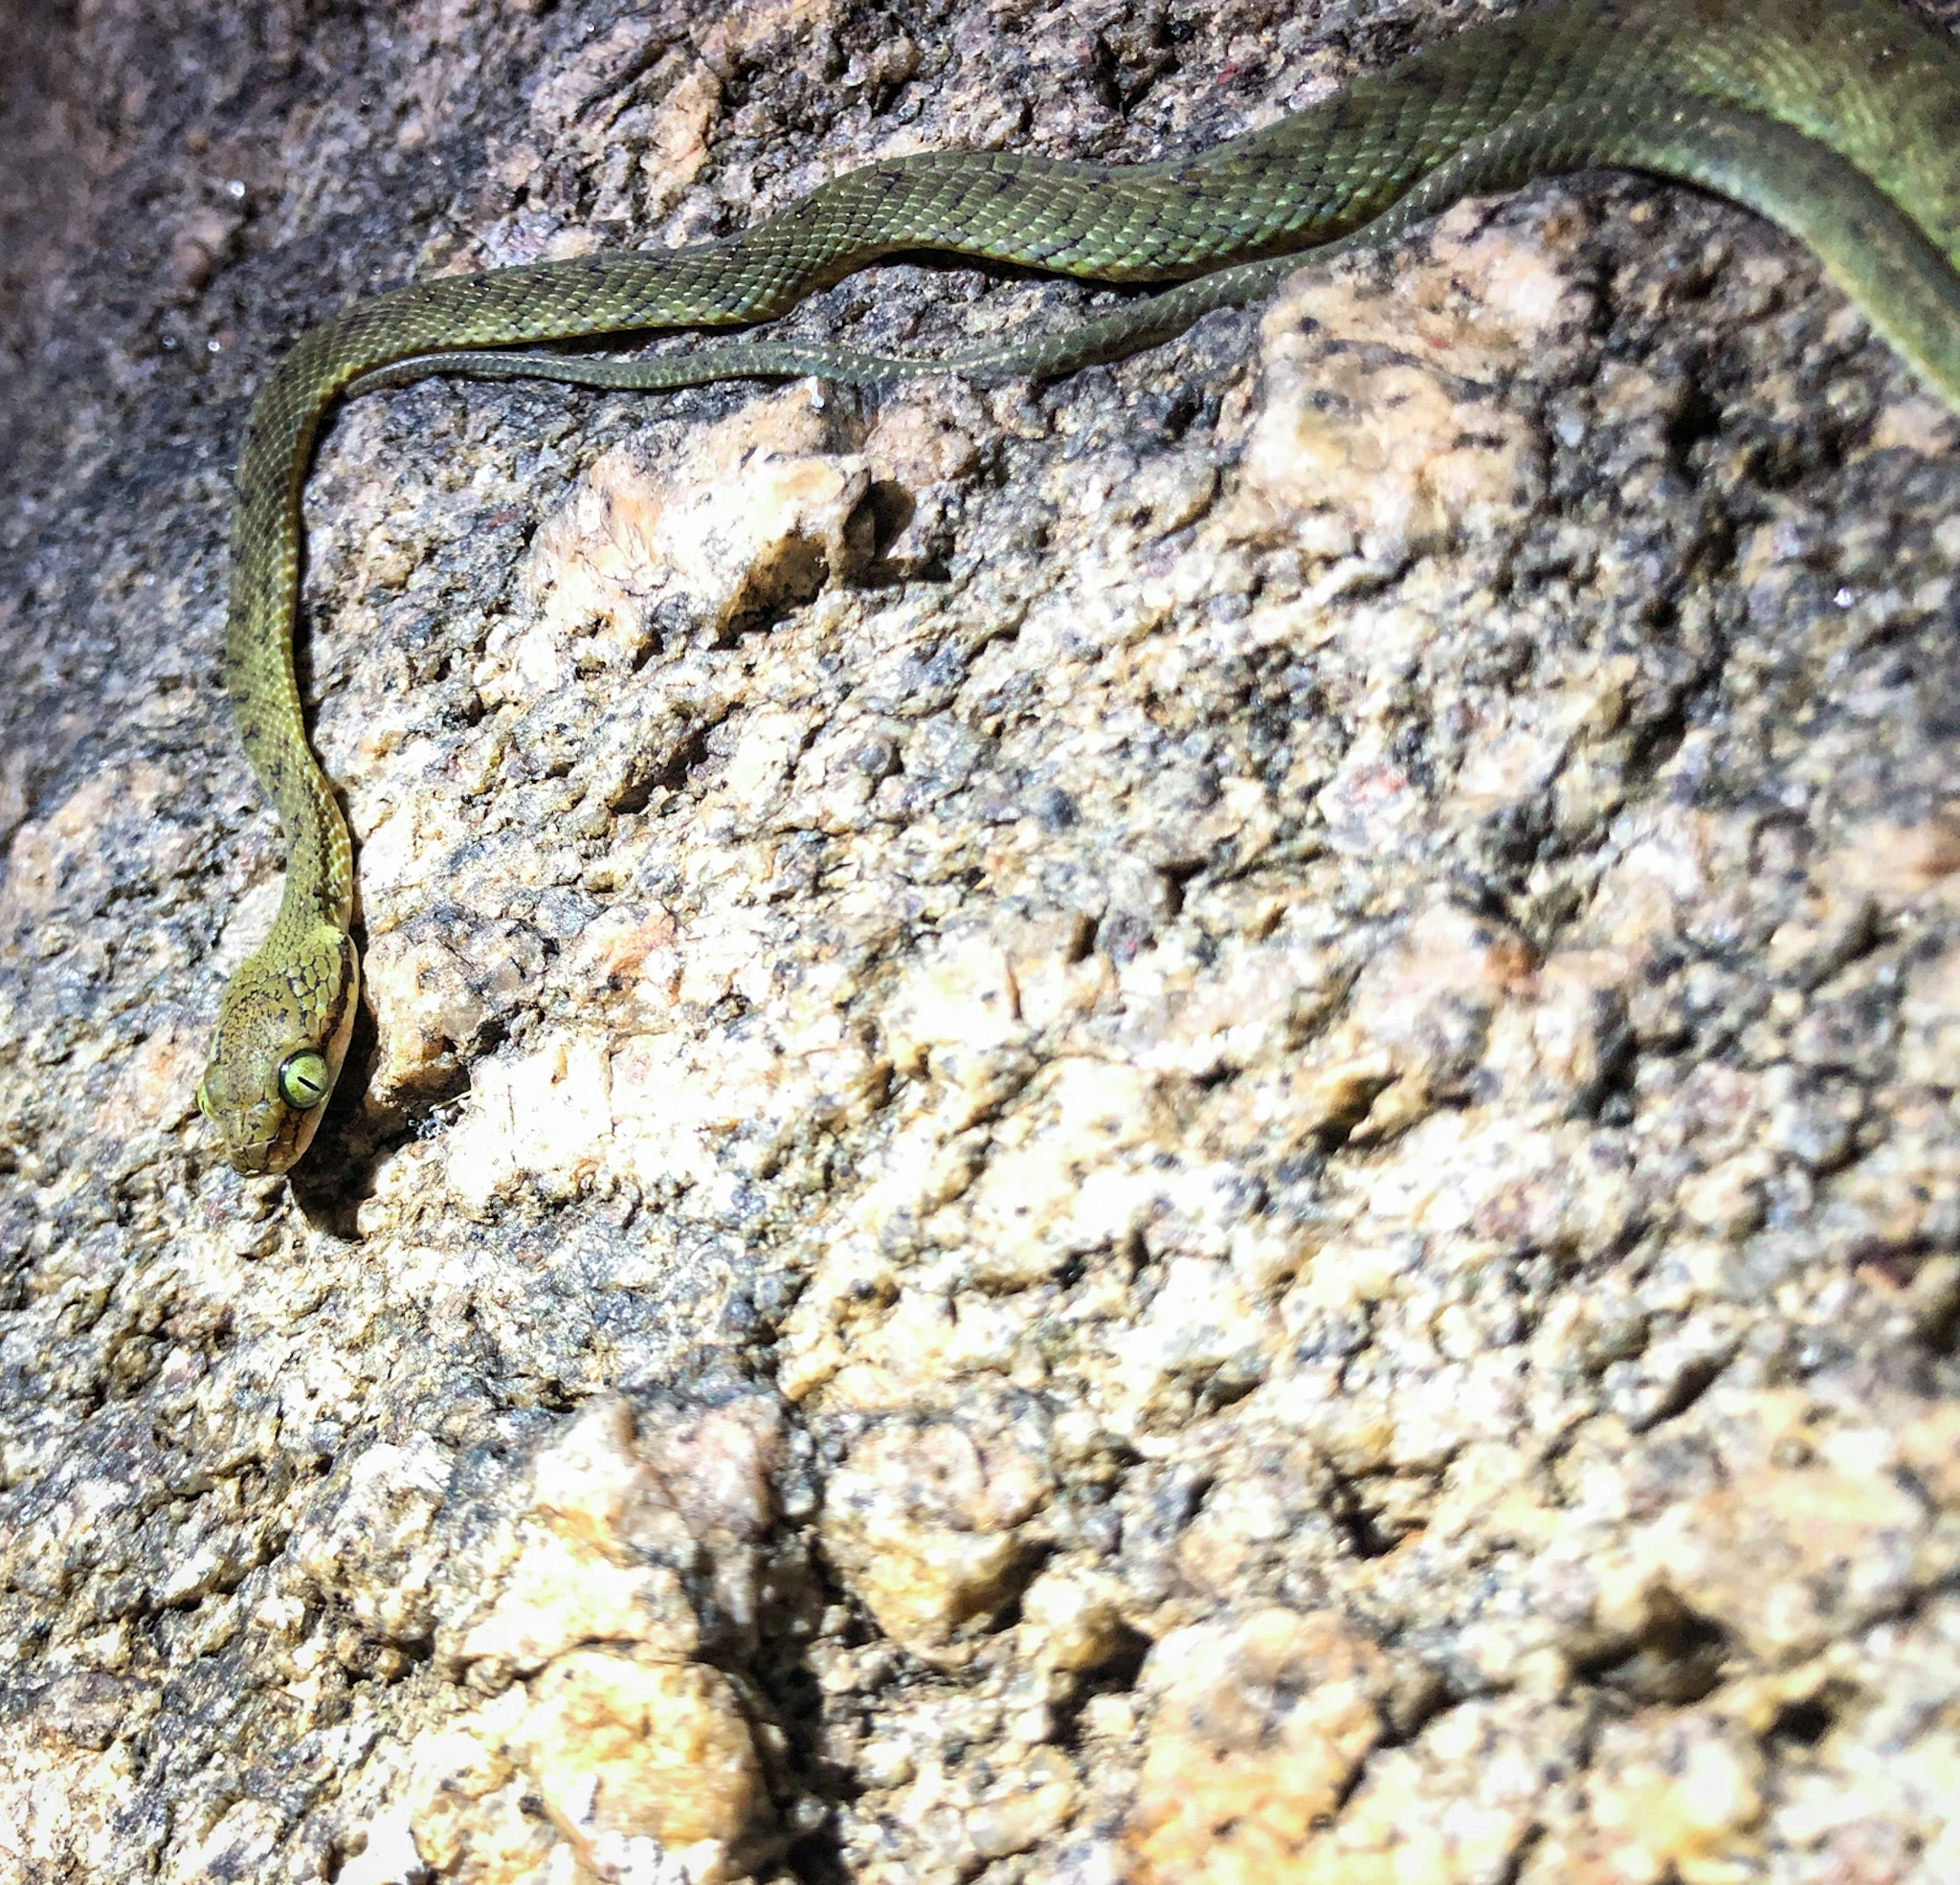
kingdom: Animalia
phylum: Chordata
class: Squamata
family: Colubridae
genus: Boiga
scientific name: Boiga flaviviridis
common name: Yellow-green cat snake
